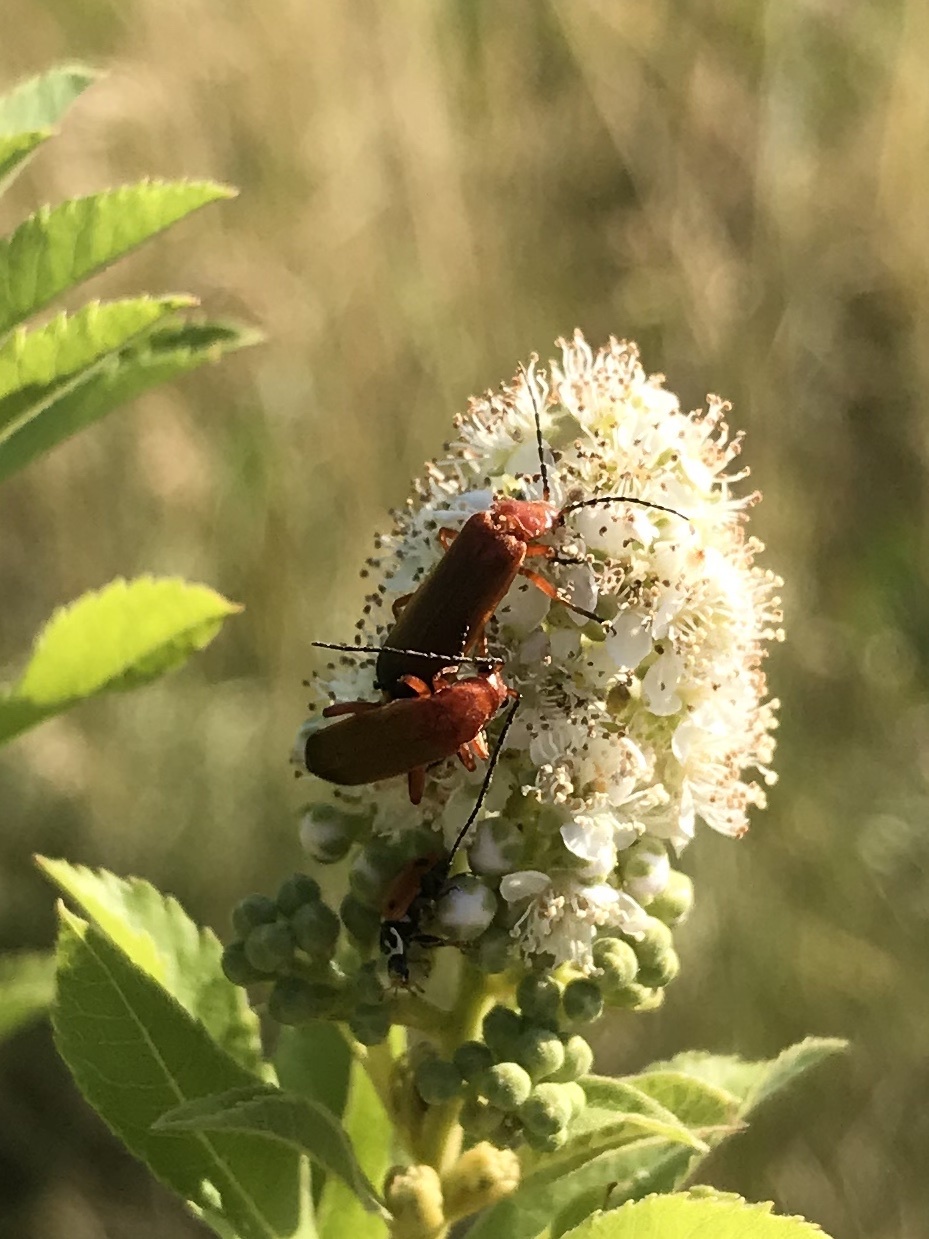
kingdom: Animalia
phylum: Arthropoda
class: Insecta
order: Coleoptera
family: Cantharidae
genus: Rhagonycha
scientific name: Rhagonycha fulva
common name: Common red soldier beetle
